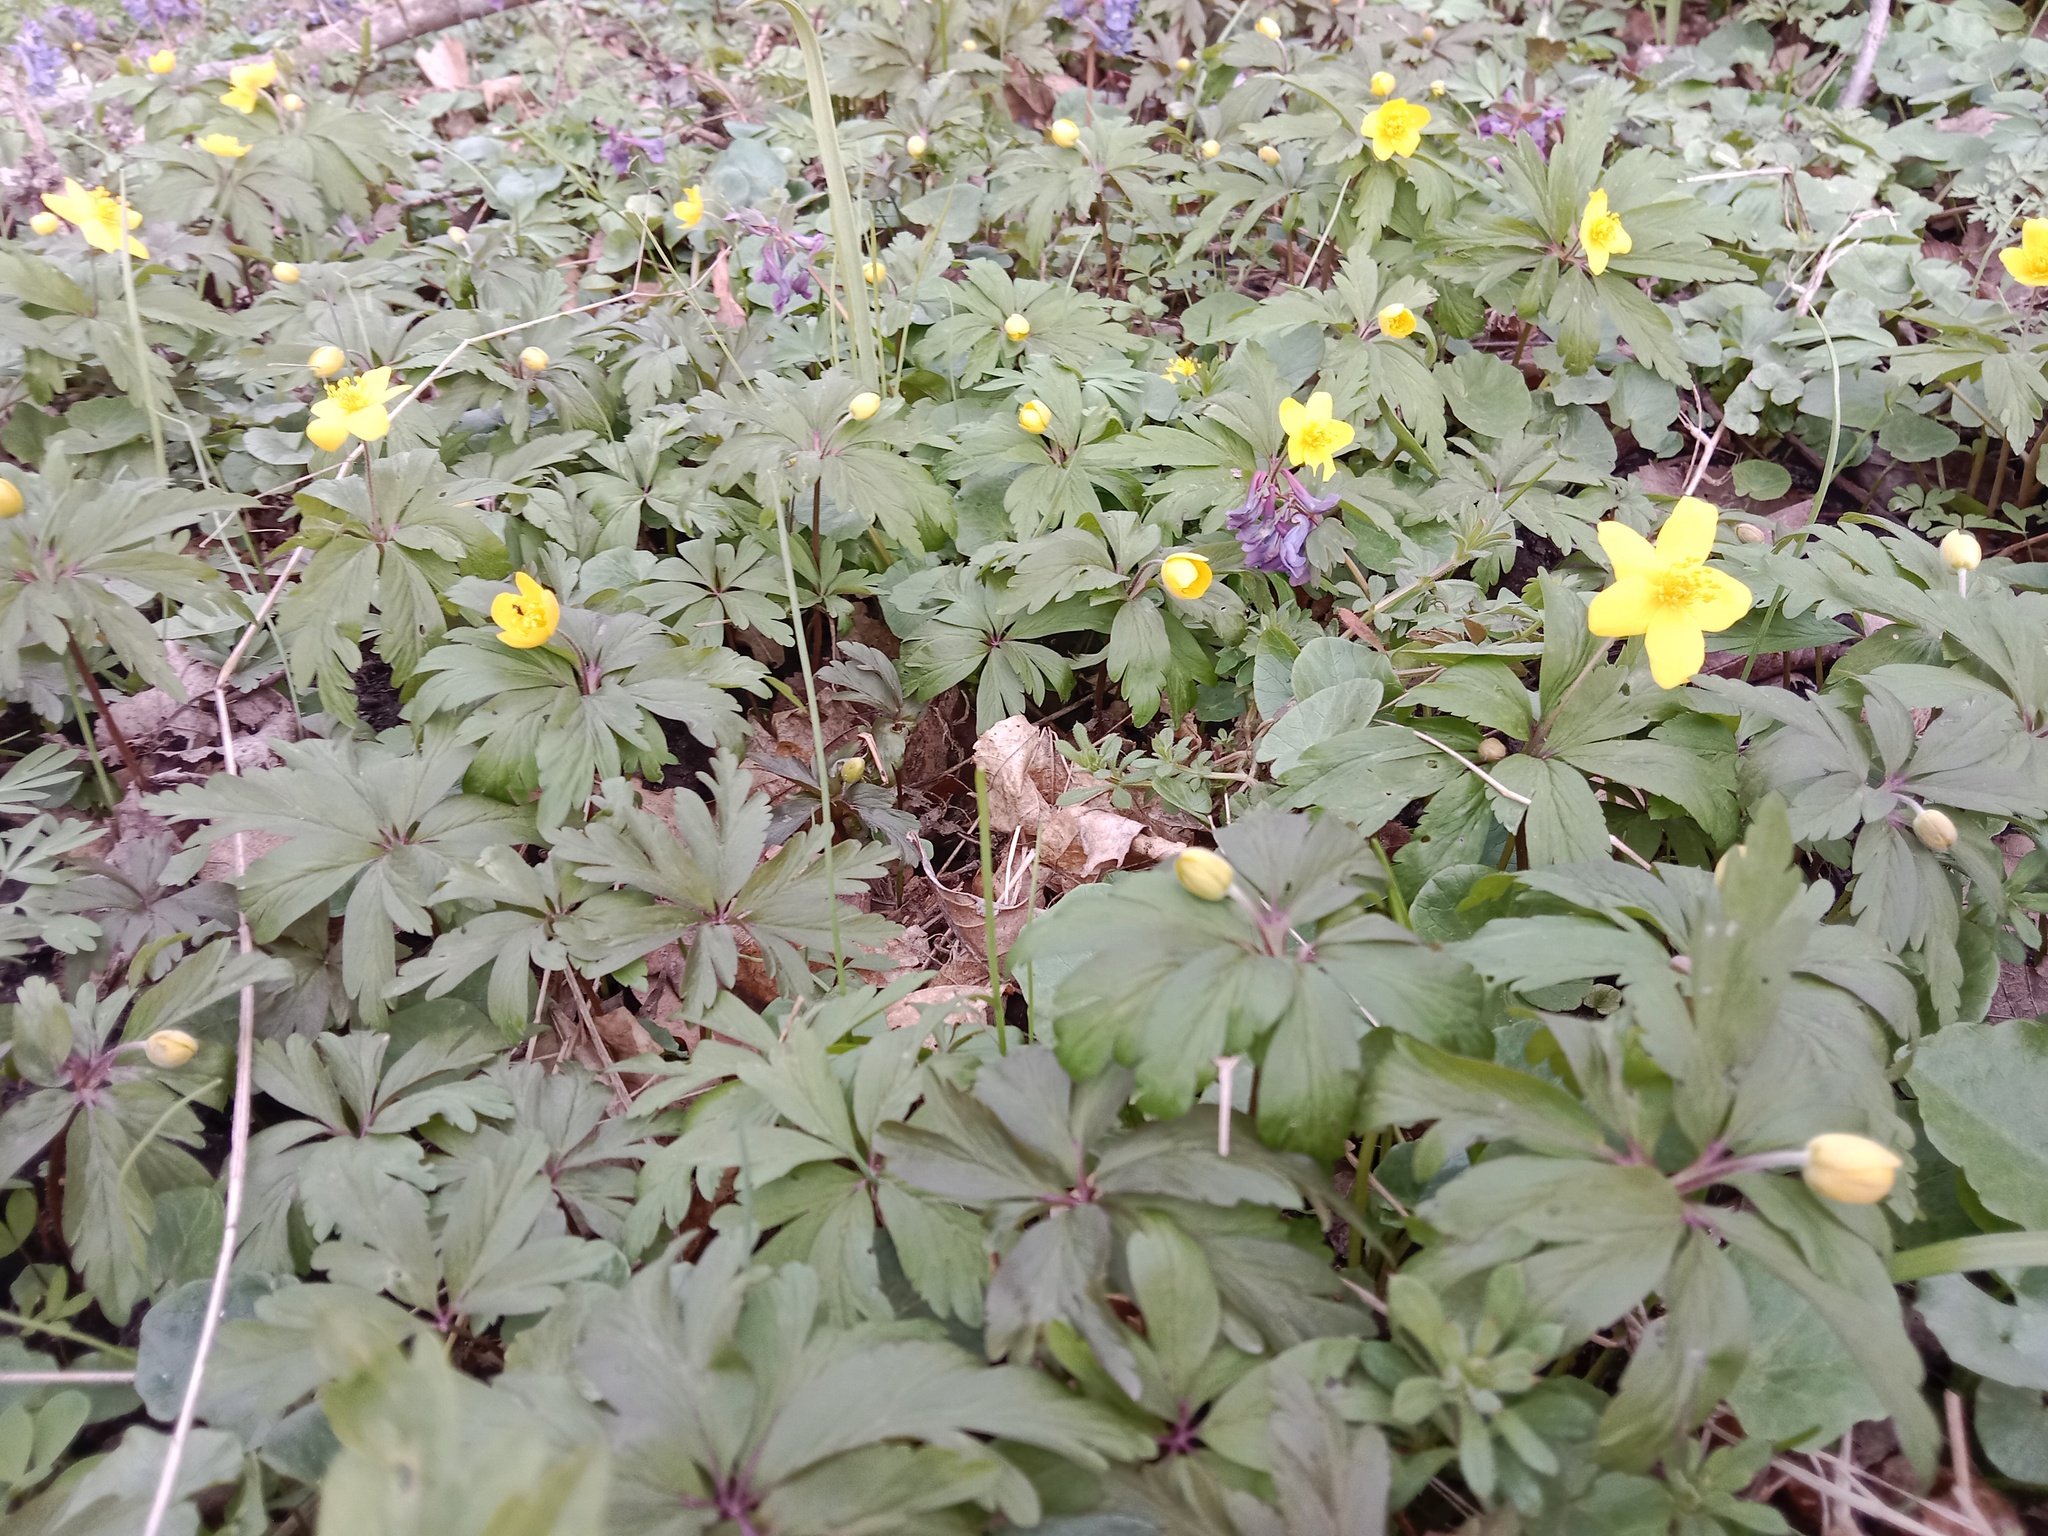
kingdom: Plantae
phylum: Tracheophyta
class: Magnoliopsida
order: Ranunculales
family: Ranunculaceae
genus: Anemone
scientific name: Anemone ranunculoides
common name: Yellow anemone
